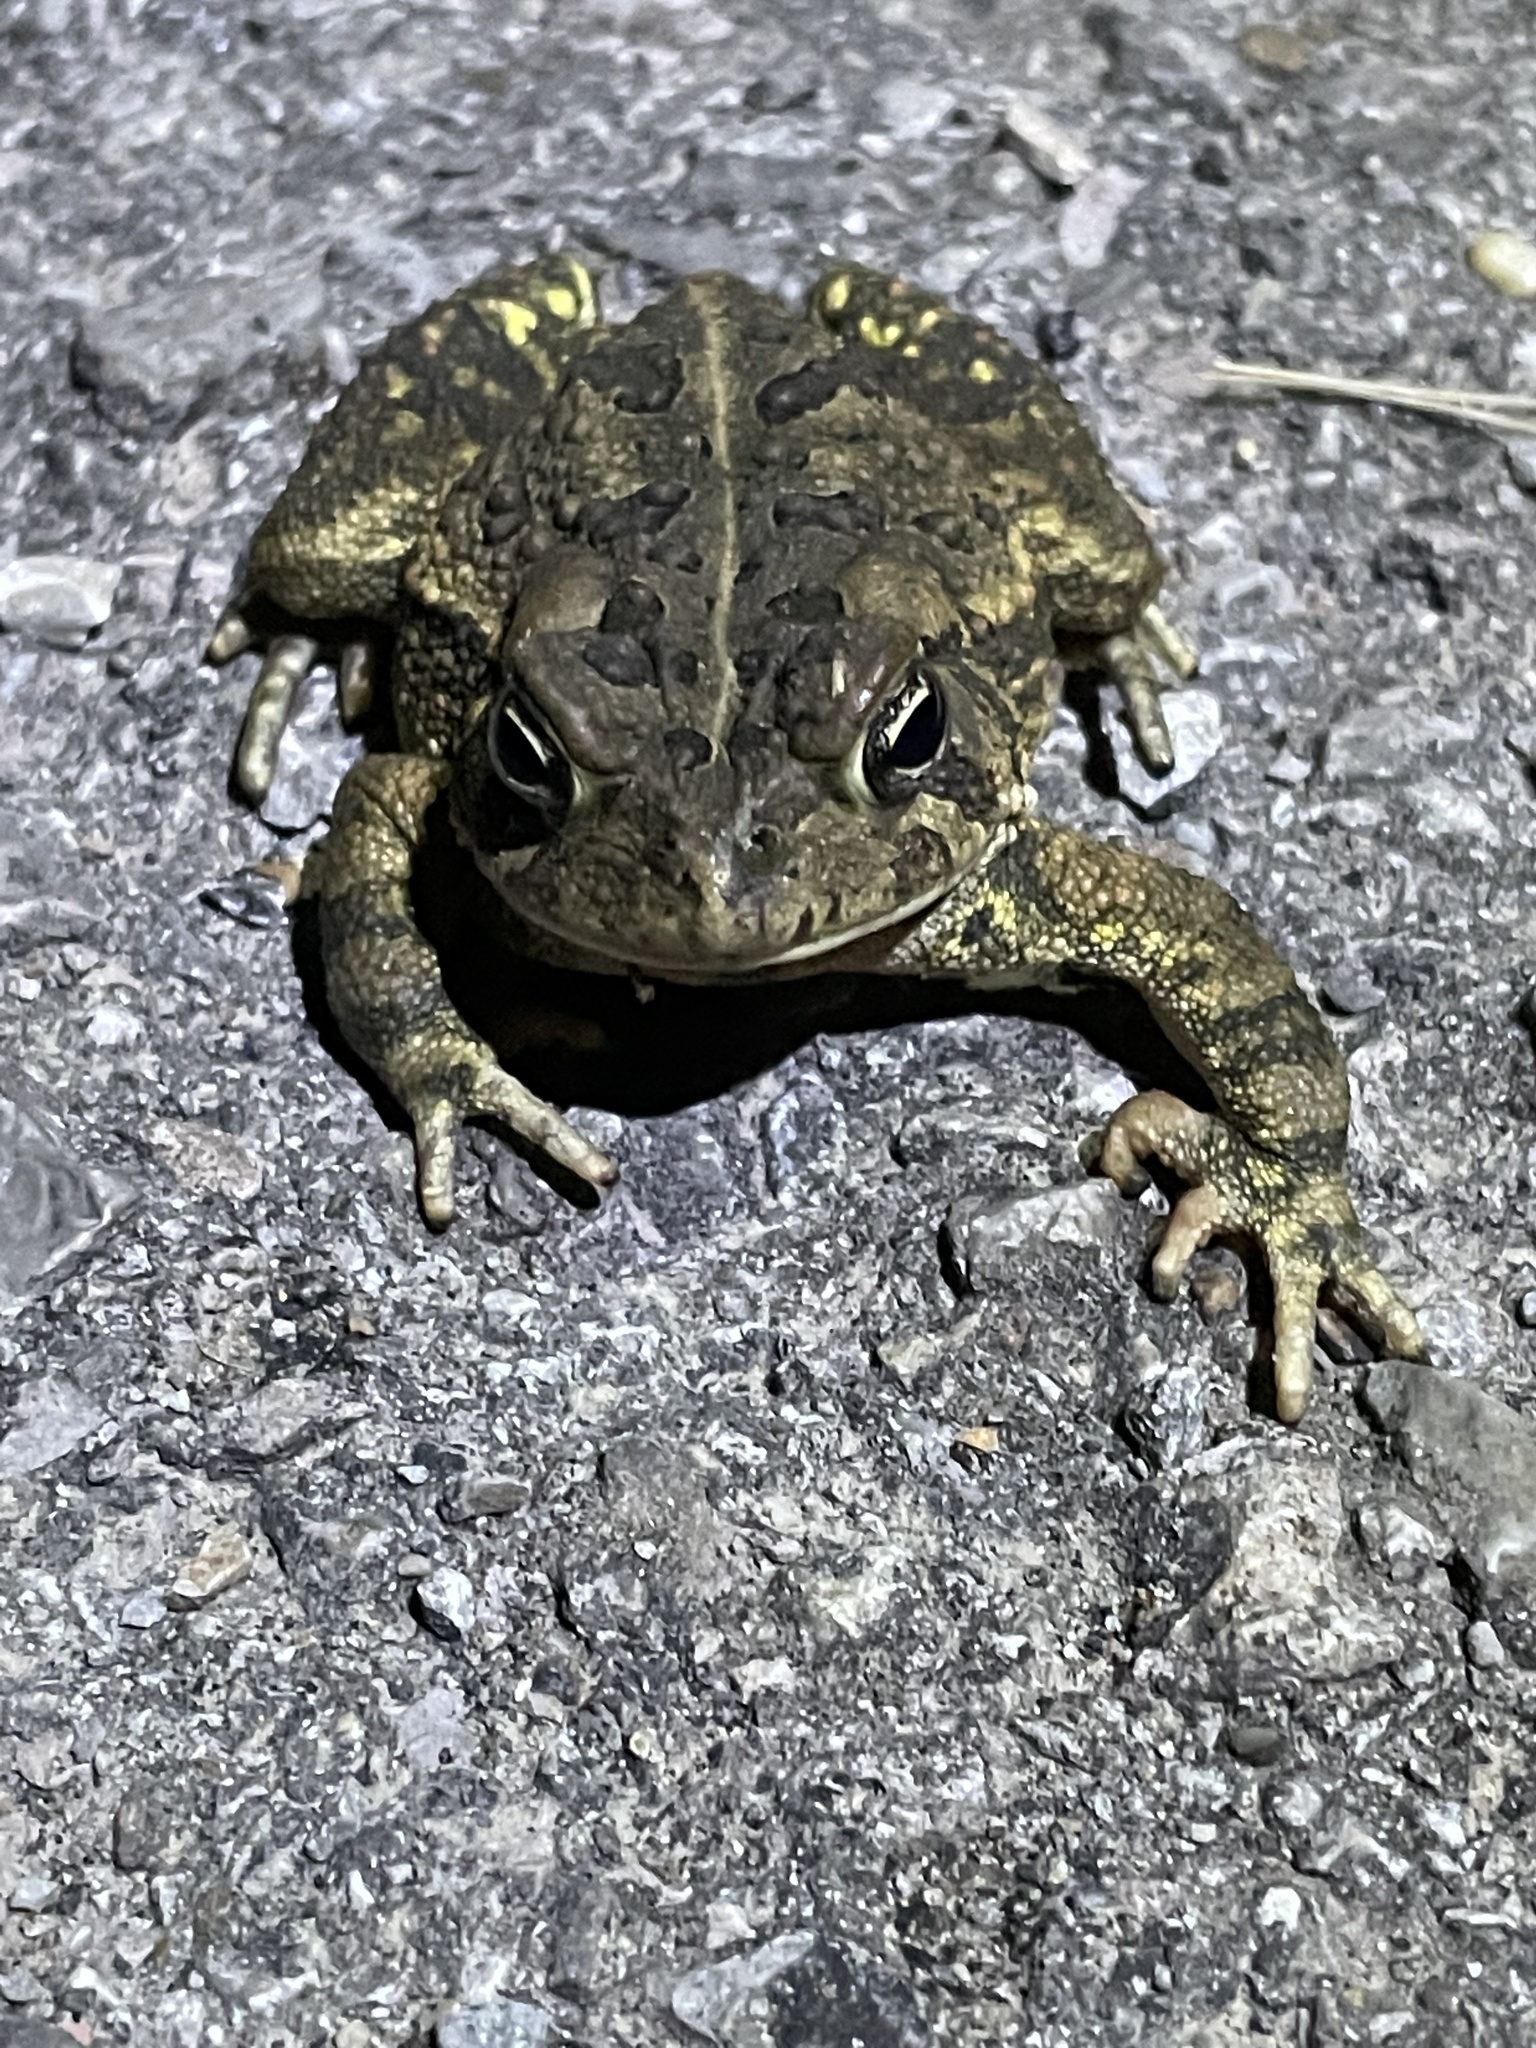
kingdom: Animalia
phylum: Chordata
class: Amphibia
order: Anura
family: Bufonidae
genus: Anaxyrus
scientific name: Anaxyrus fowleri
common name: Fowler's toad
